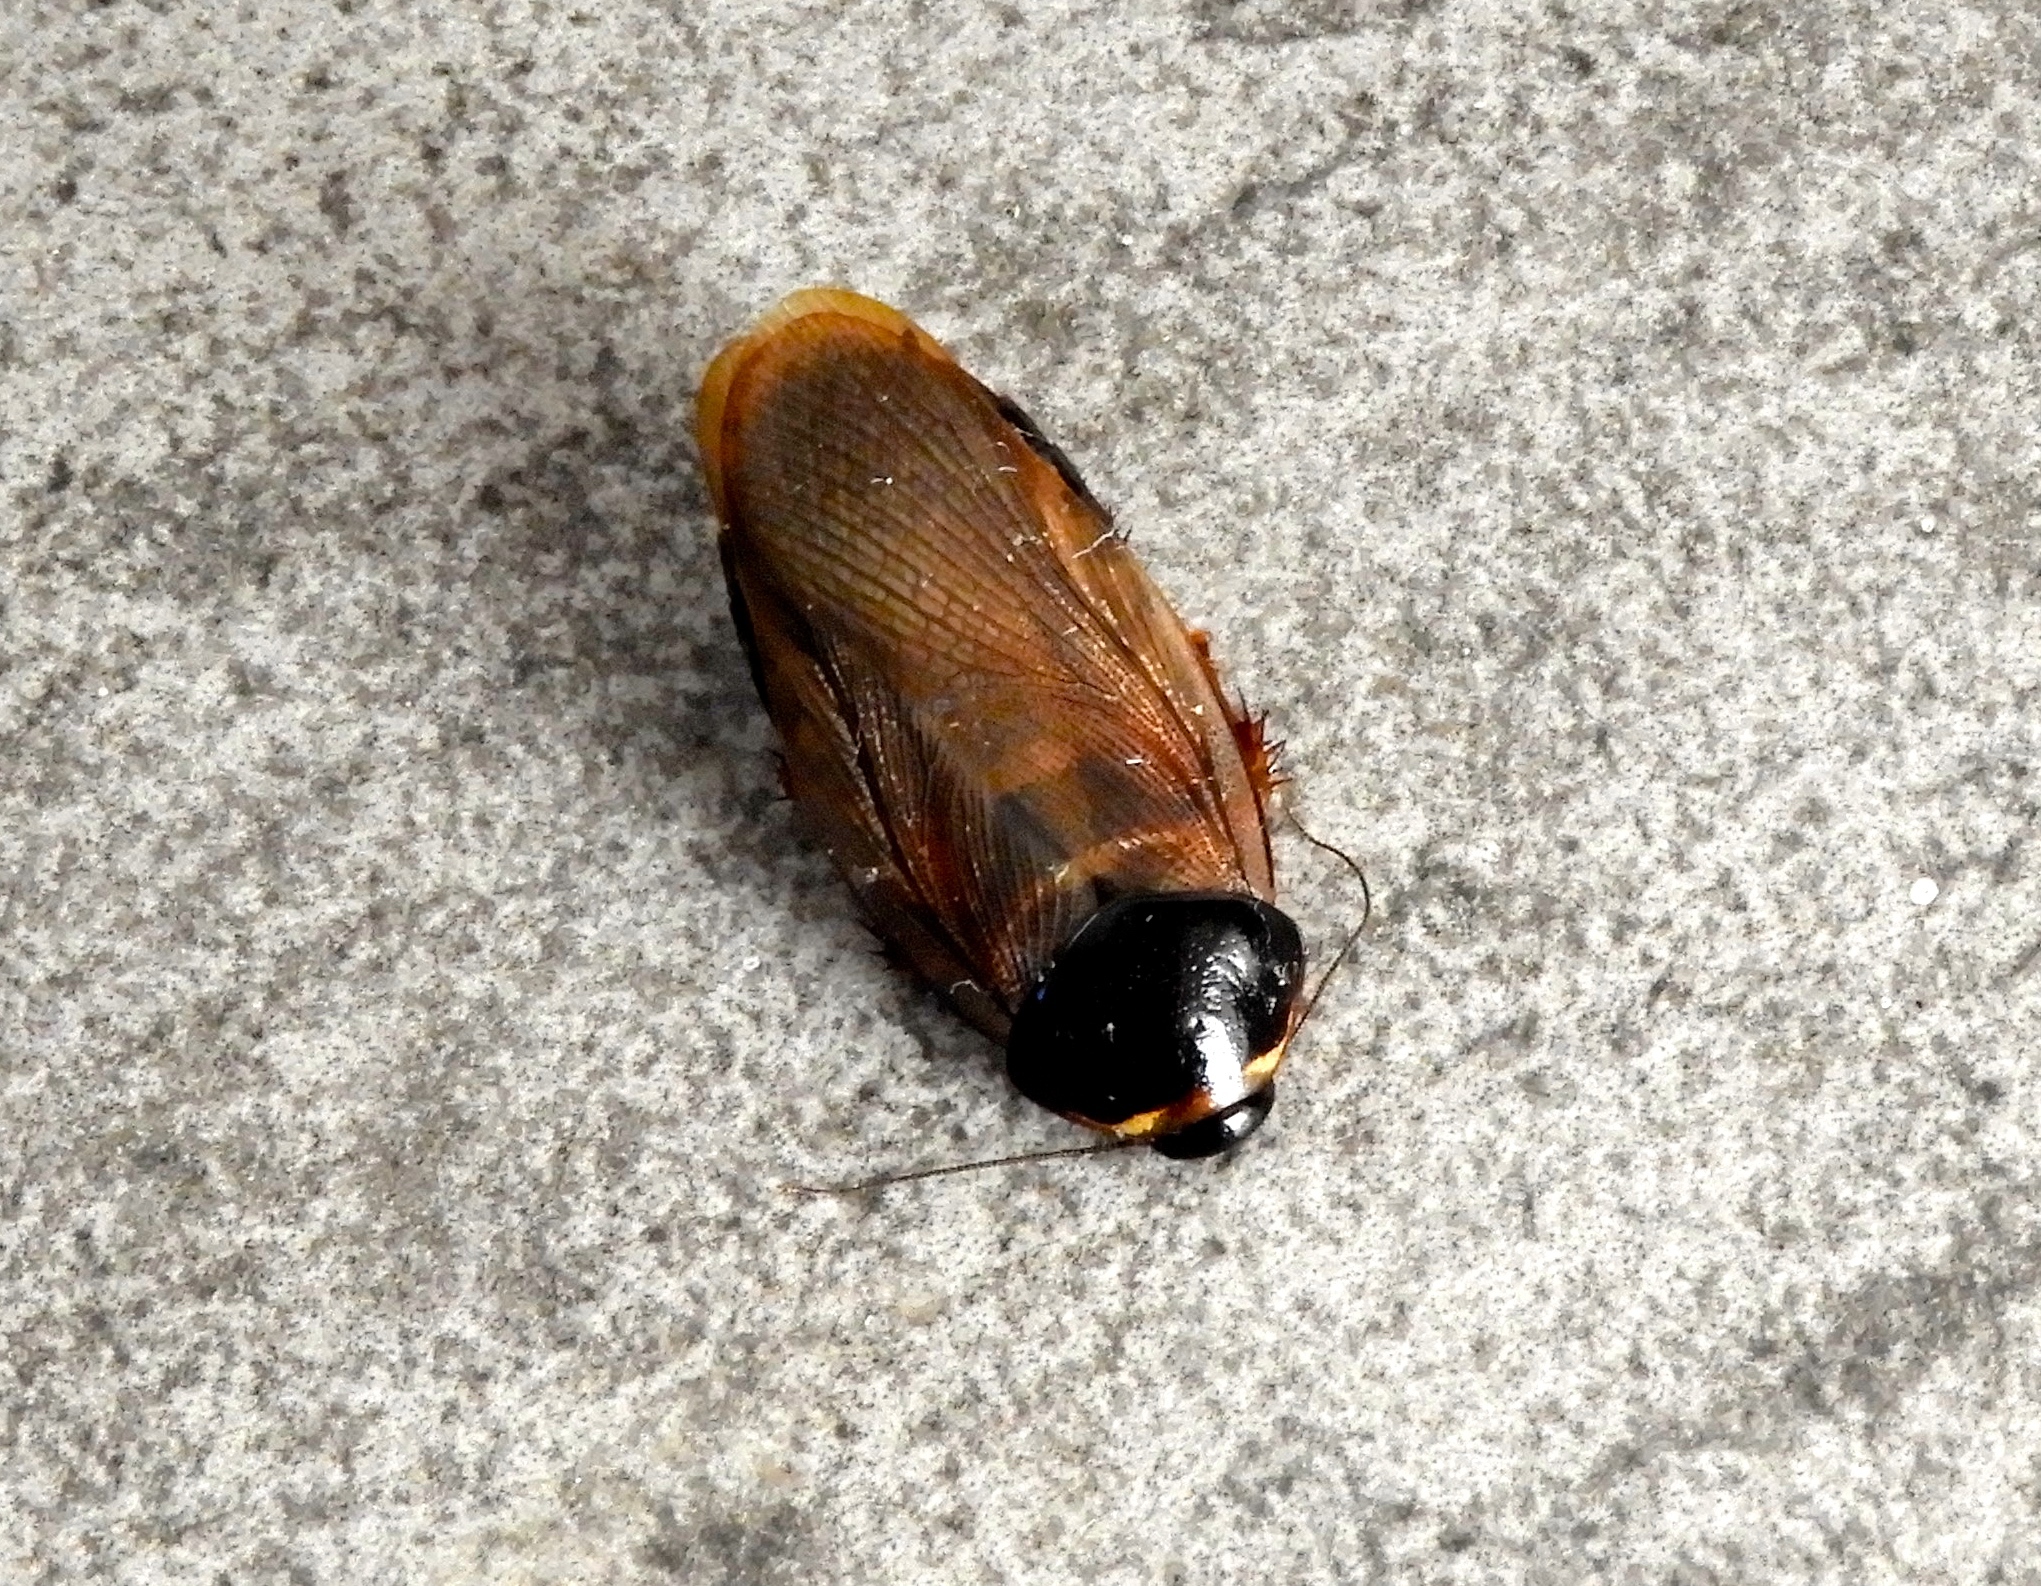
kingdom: Animalia
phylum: Arthropoda
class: Insecta
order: Blattodea
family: Blaberidae
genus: Pycnoscelus
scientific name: Pycnoscelus surinamensis
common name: Surinam cockroach
